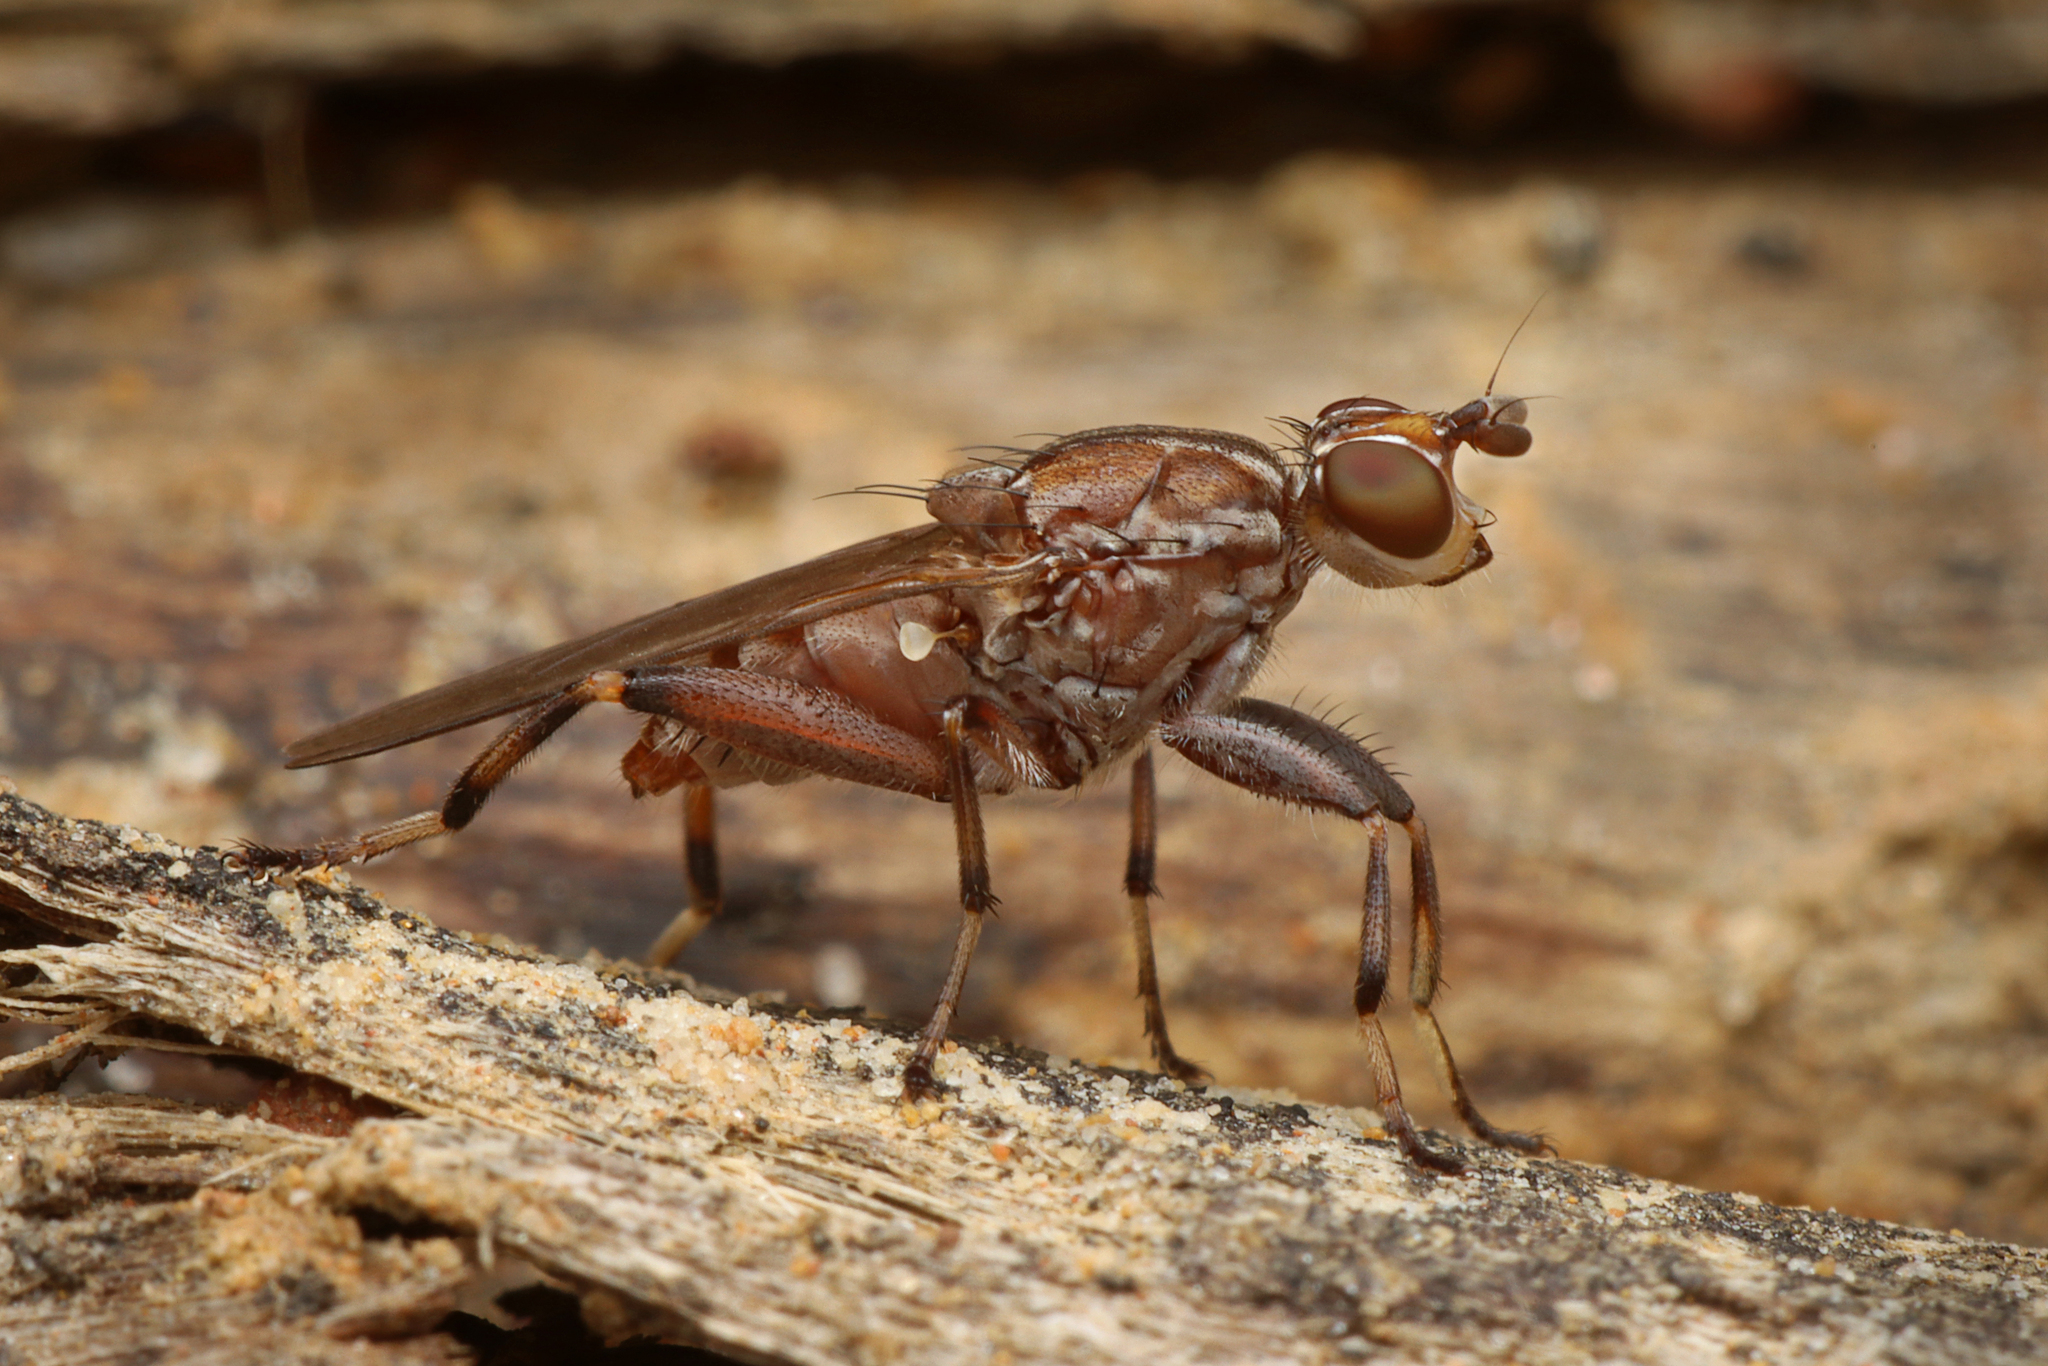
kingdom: Animalia
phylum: Arthropoda
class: Insecta
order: Diptera
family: Heleomyzidae
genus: Tapeigaster
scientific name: Tapeigaster nigricornis
